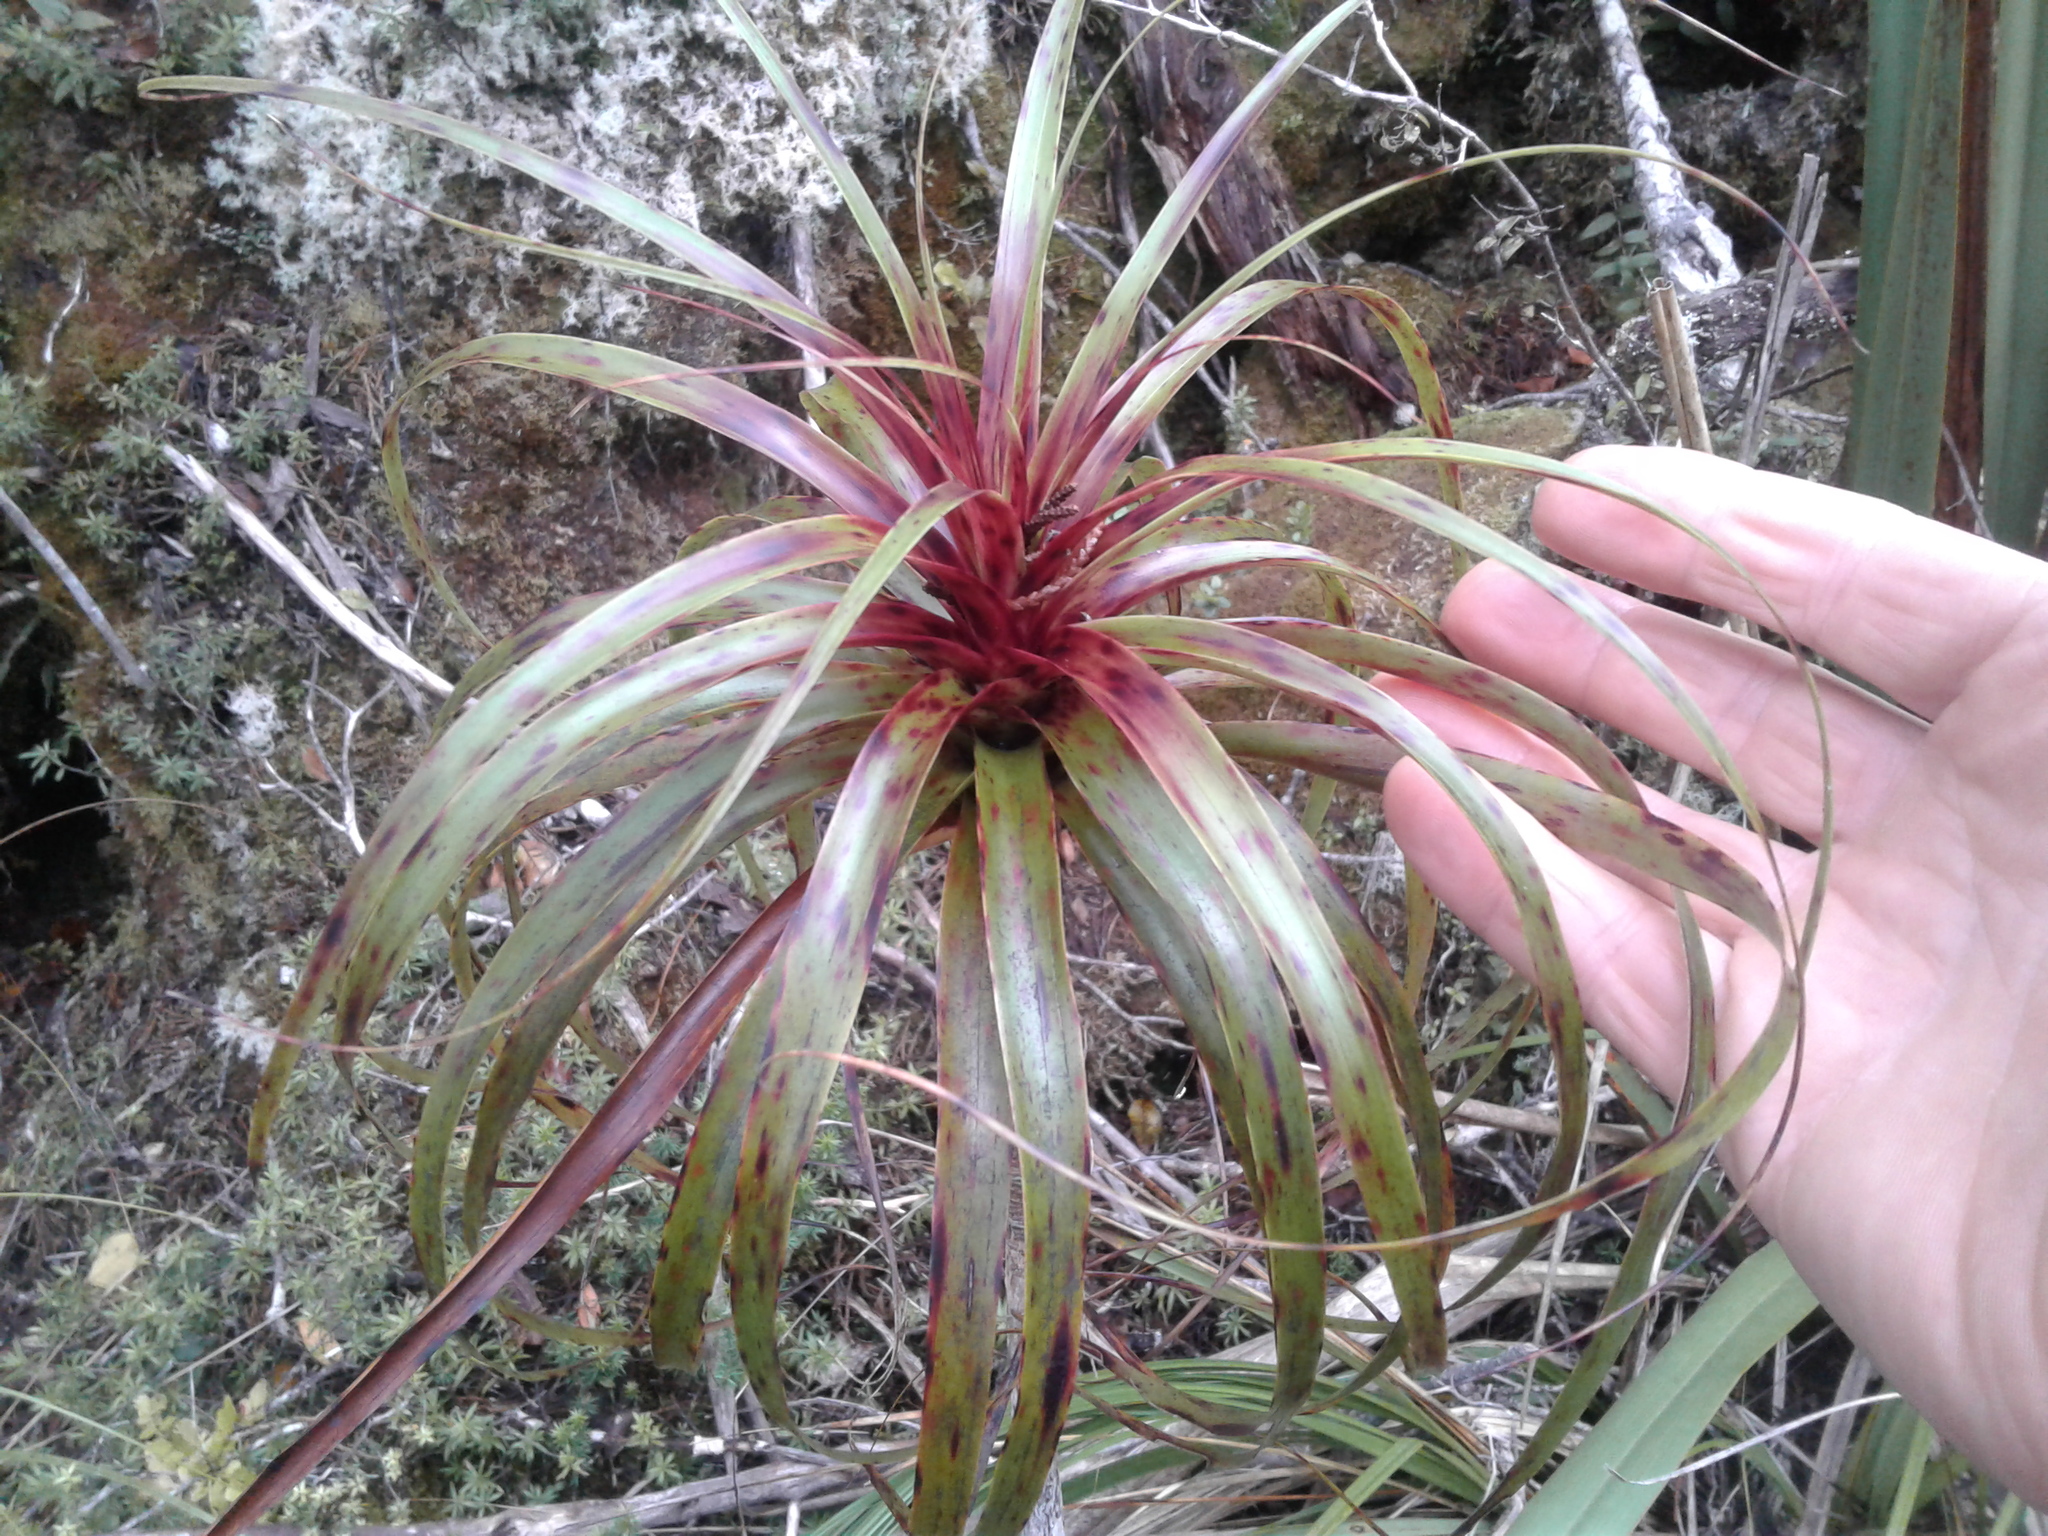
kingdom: Plantae
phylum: Tracheophyta
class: Magnoliopsida
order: Ericales
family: Ericaceae
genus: Dracophyllum
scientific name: Dracophyllum traversii
